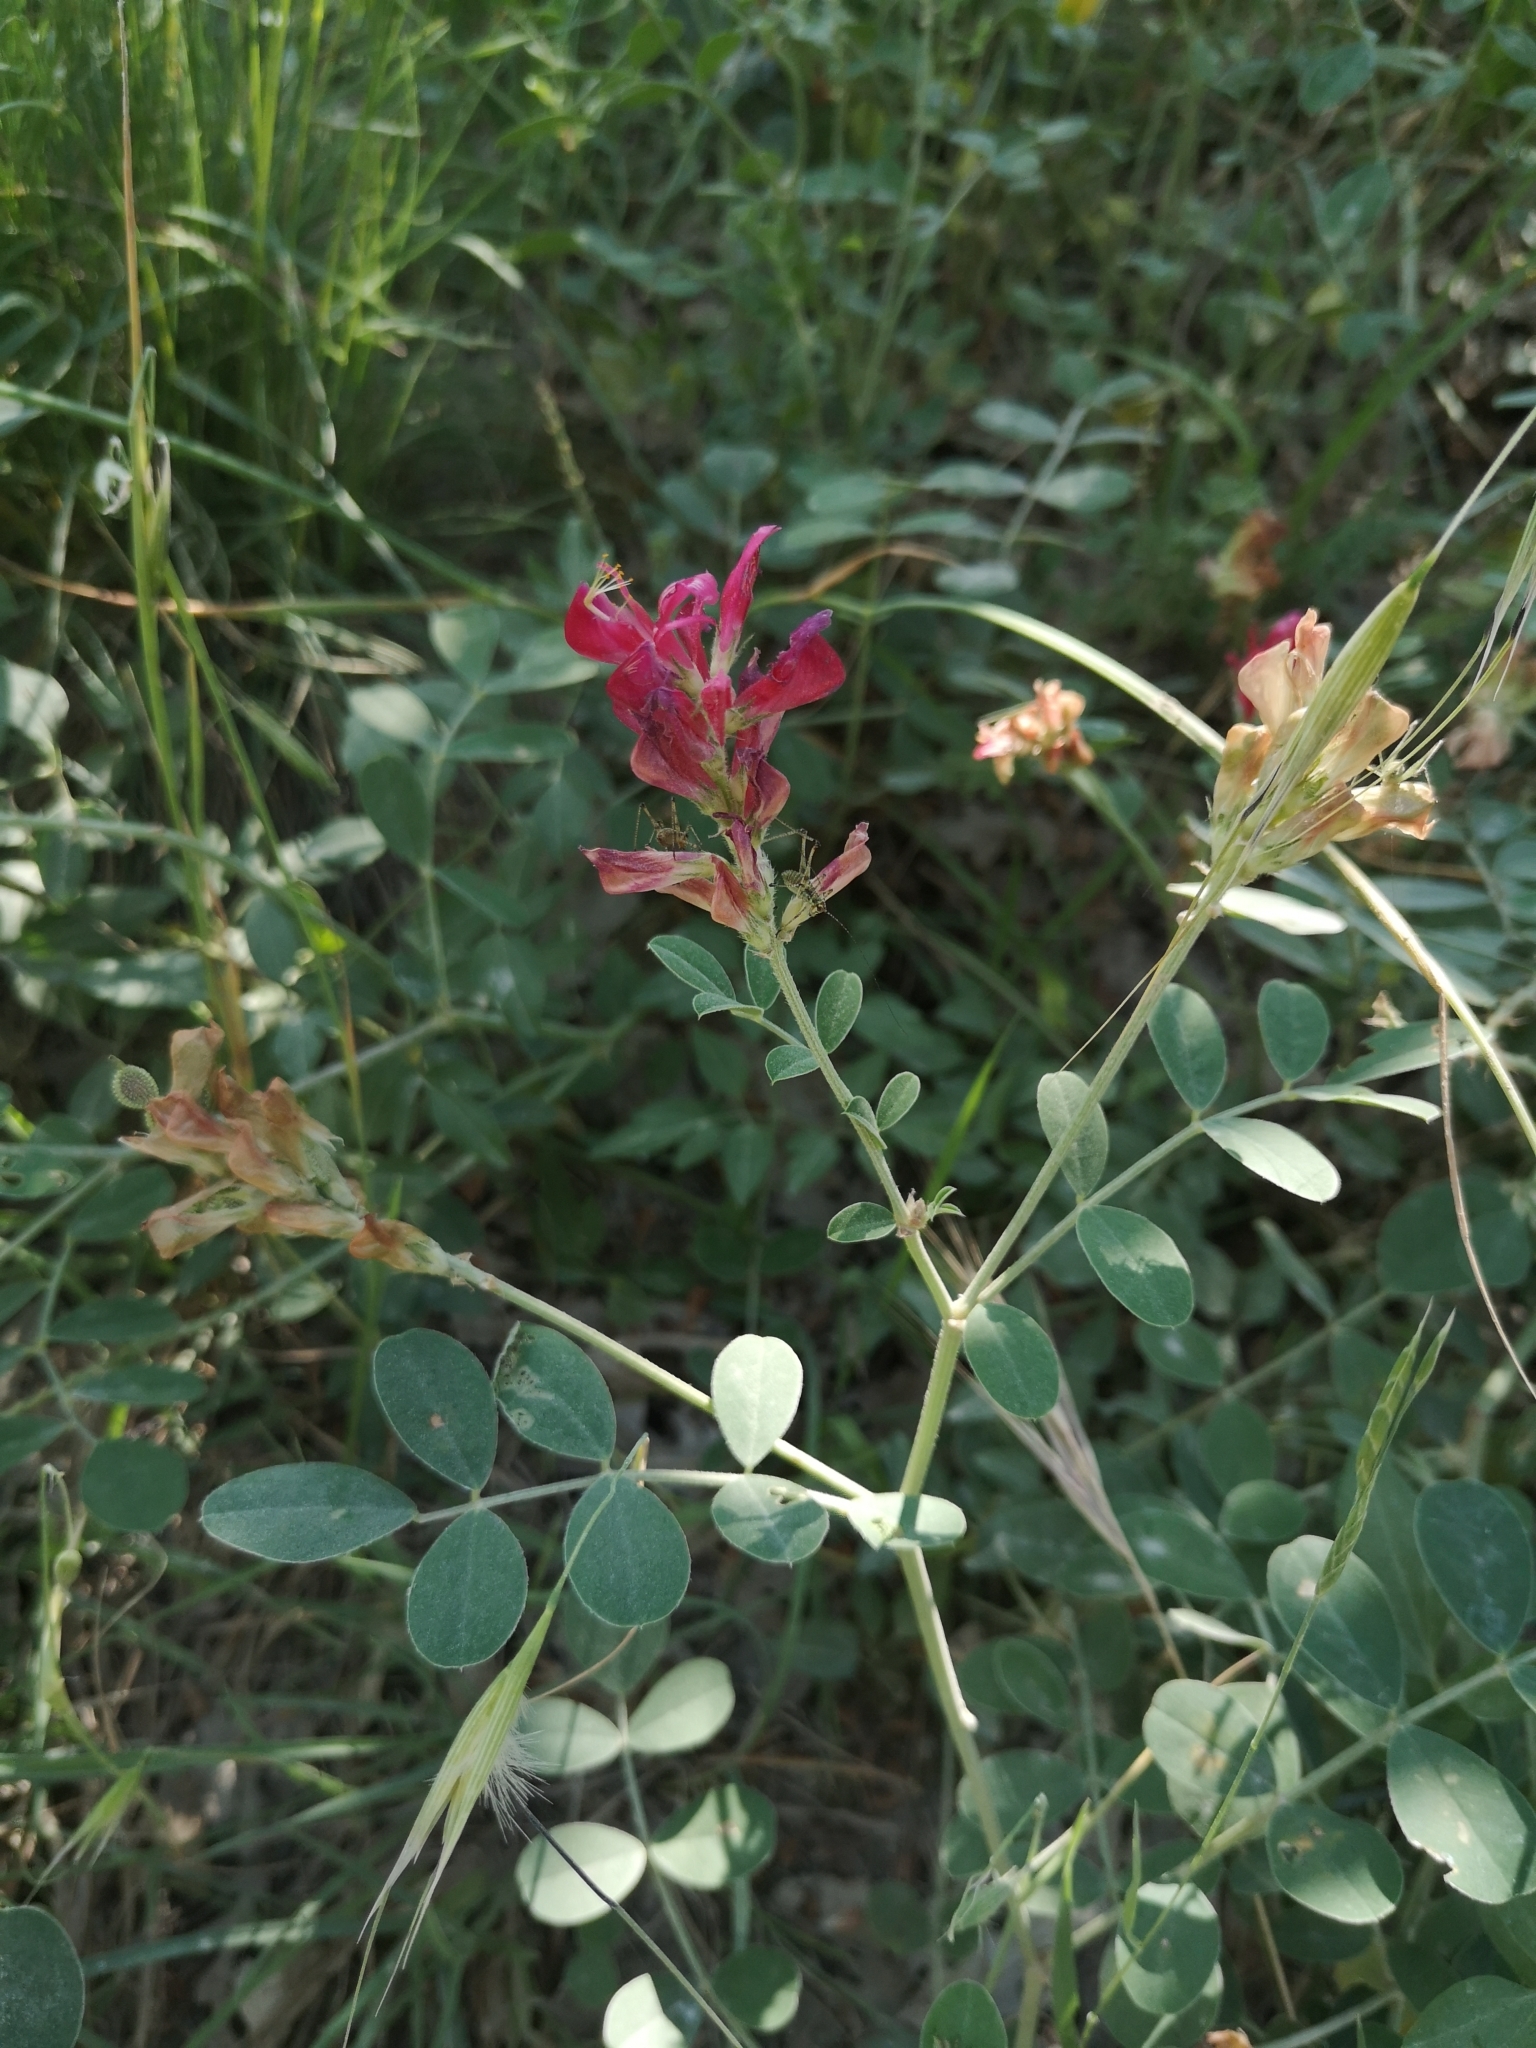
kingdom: Plantae
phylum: Tracheophyta
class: Magnoliopsida
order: Fabales
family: Fabaceae
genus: Sulla
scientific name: Sulla coronaria
